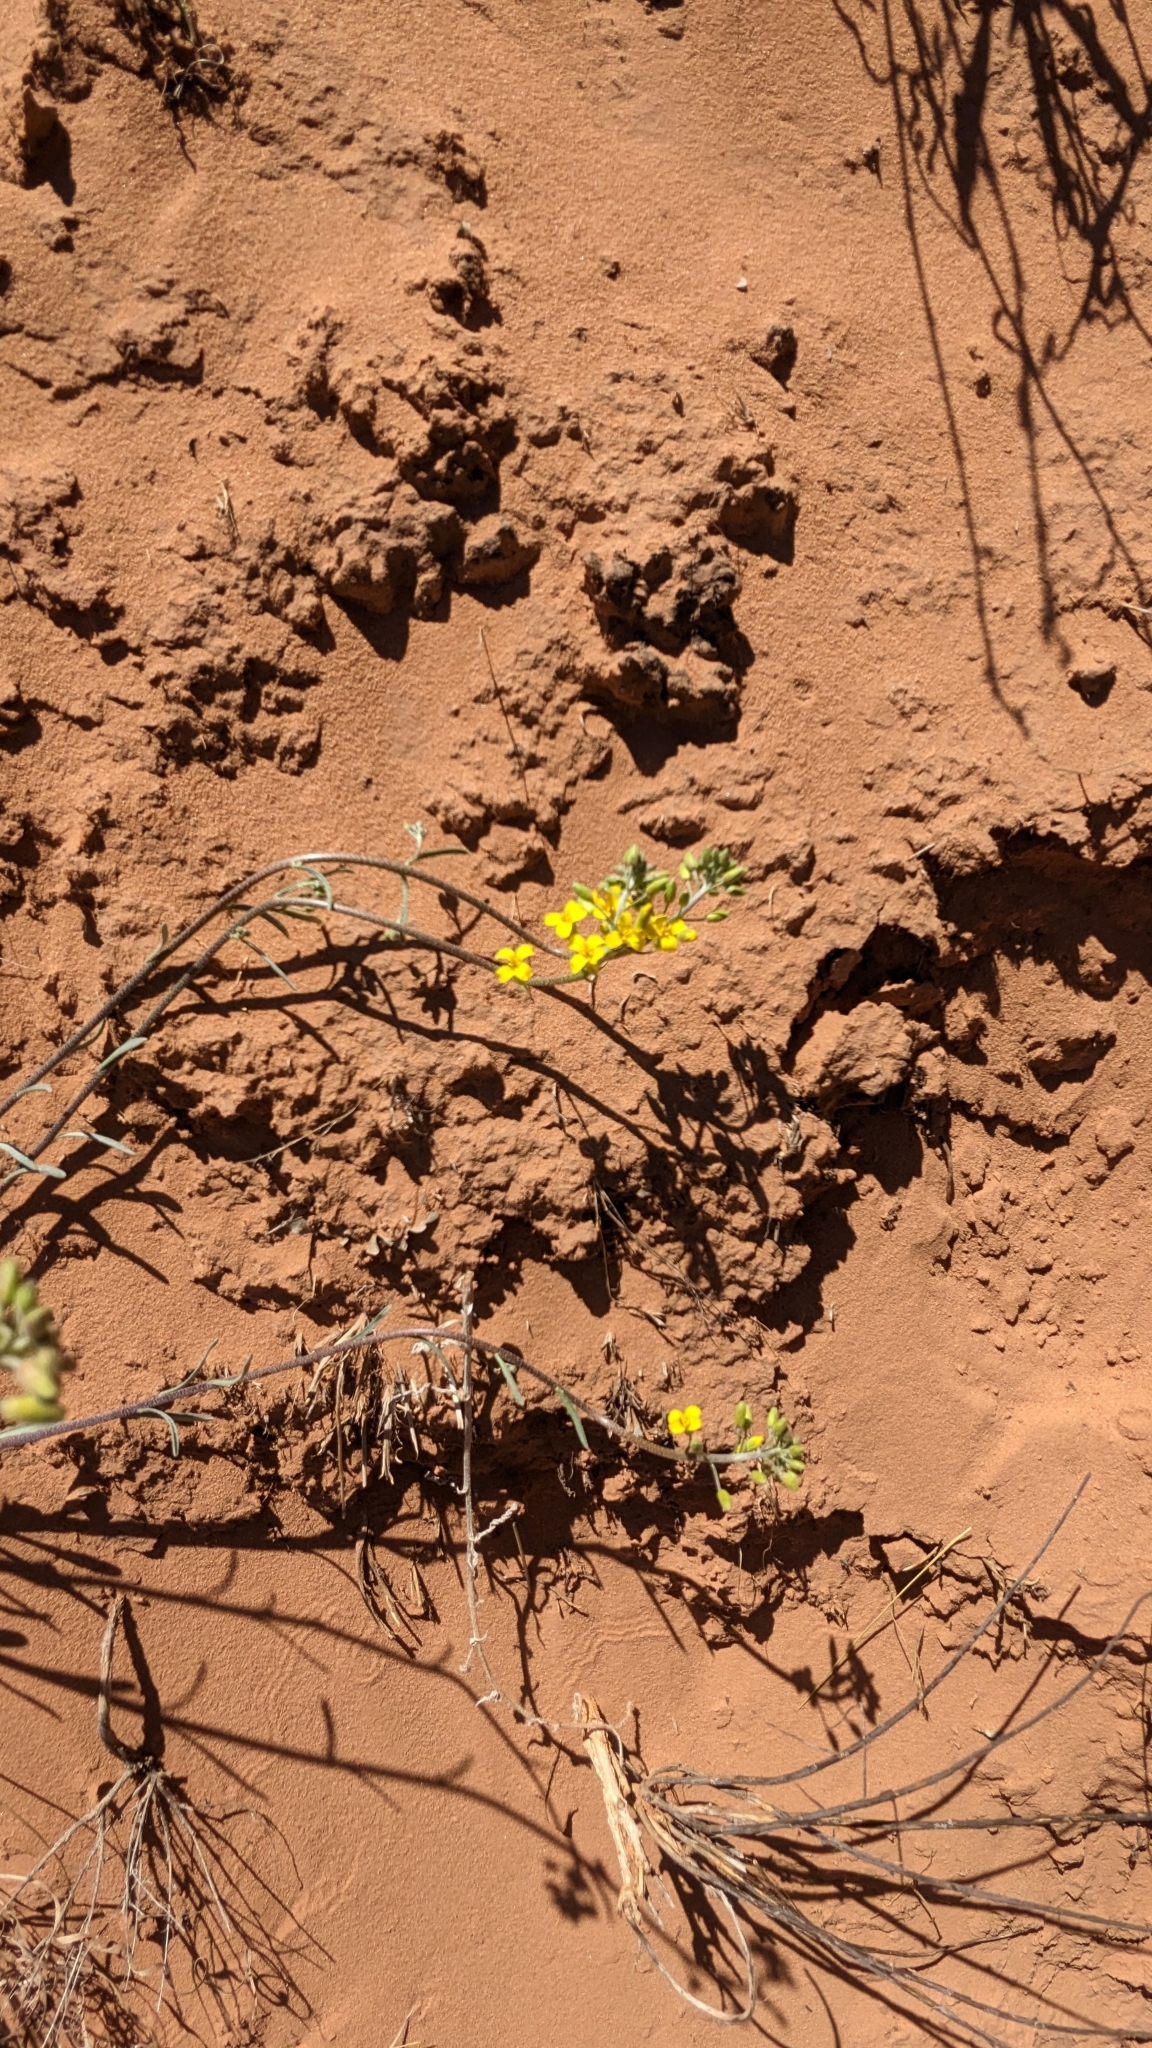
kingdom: Plantae
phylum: Tracheophyta
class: Magnoliopsida
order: Brassicales
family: Brassicaceae
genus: Physaria
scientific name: Physaria rectipes
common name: Colorado bladderpod
